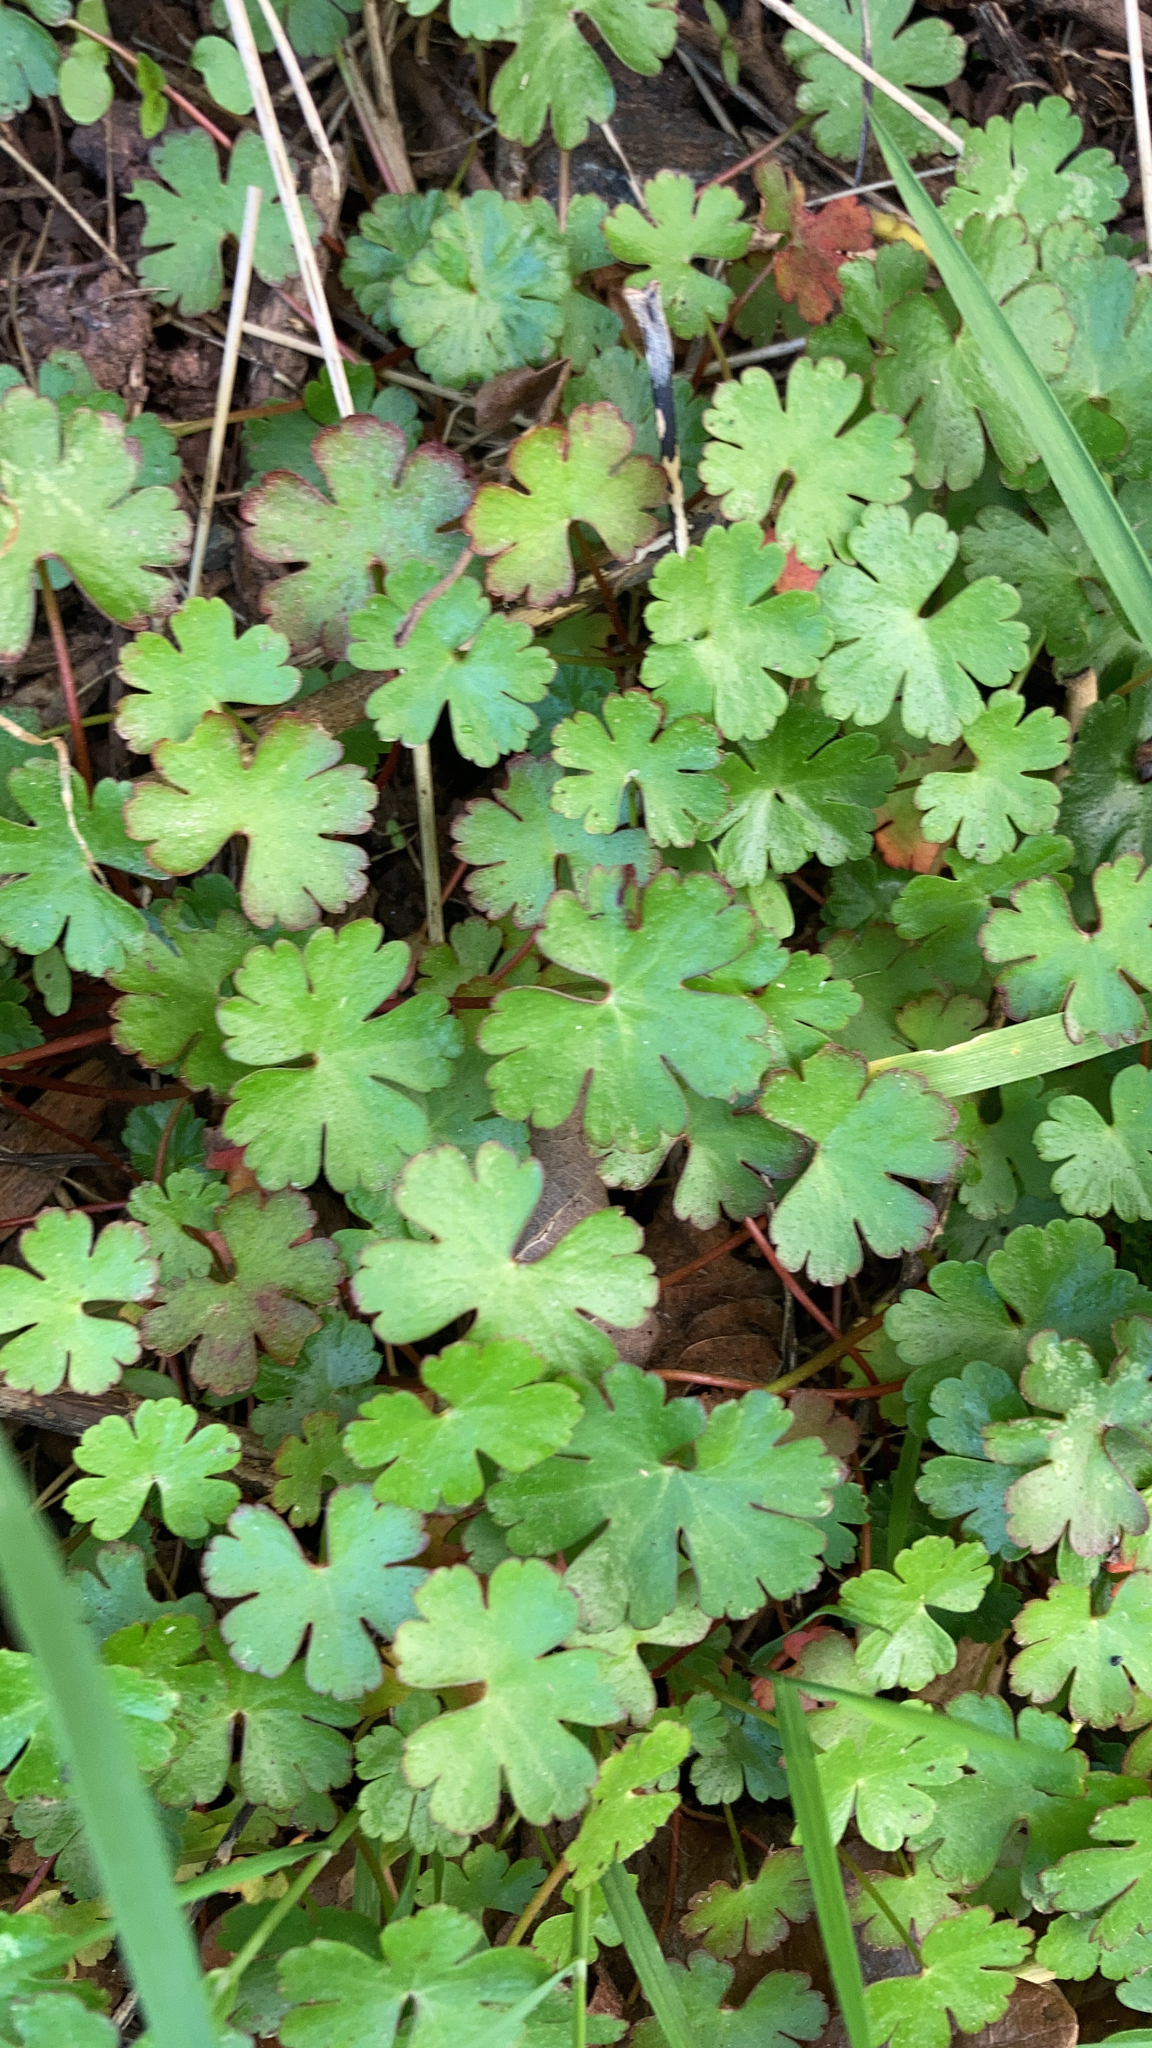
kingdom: Plantae
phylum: Tracheophyta
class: Magnoliopsida
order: Geraniales
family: Geraniaceae
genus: Geranium
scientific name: Geranium lucidum
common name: Shining crane's-bill
